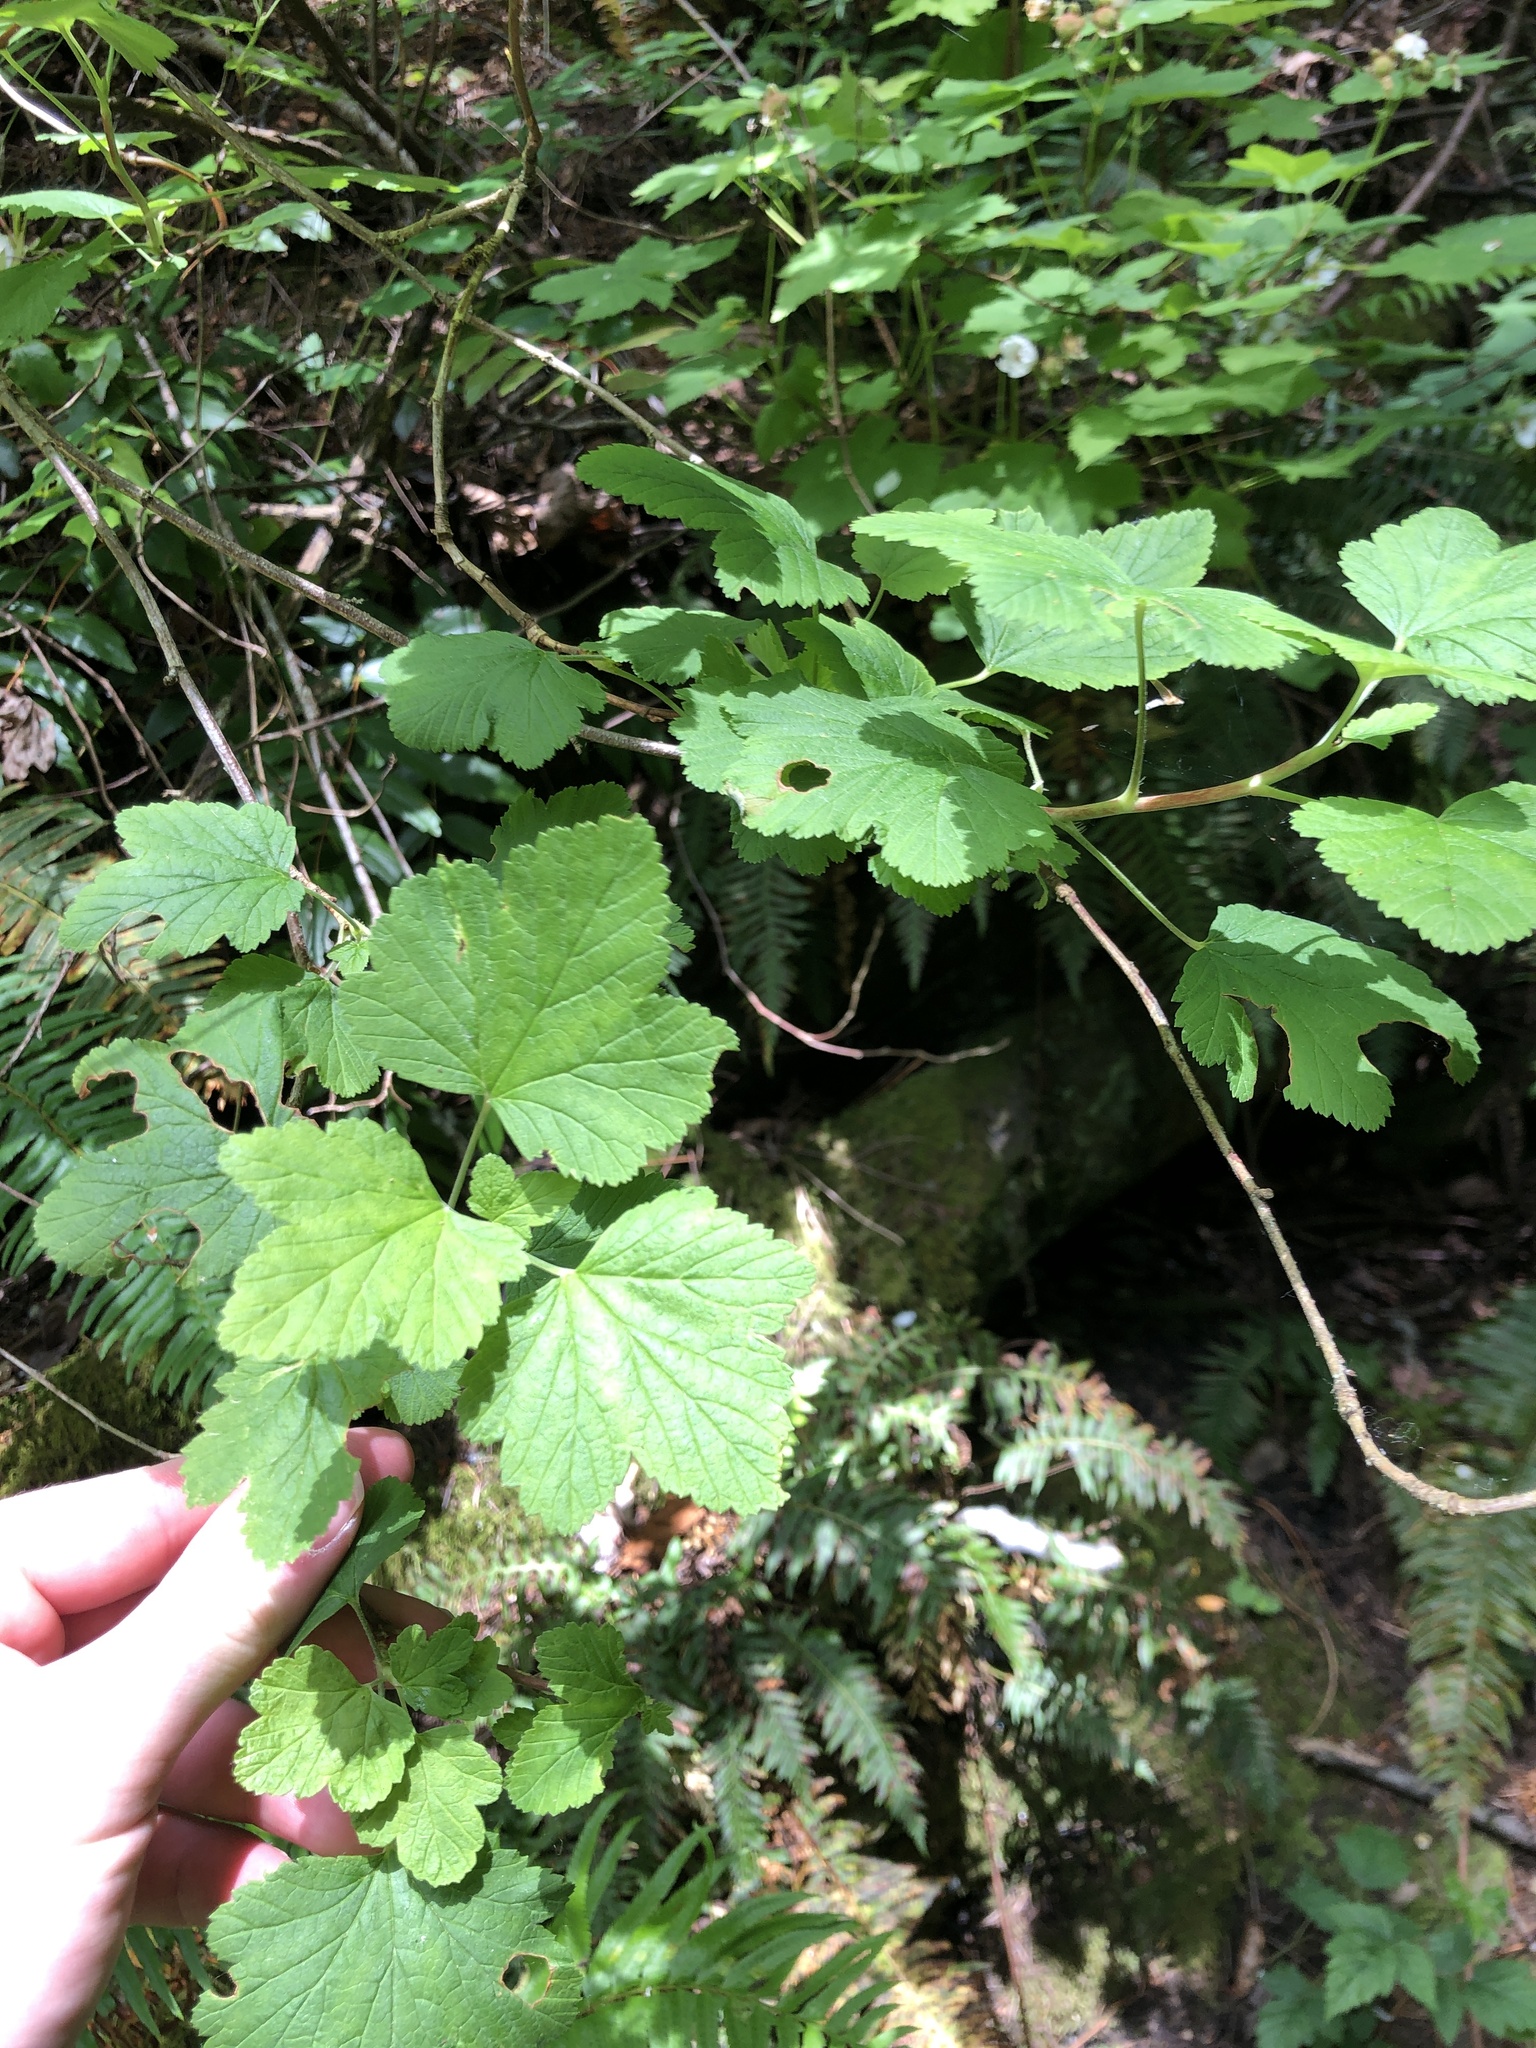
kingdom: Plantae
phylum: Tracheophyta
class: Magnoliopsida
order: Saxifragales
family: Grossulariaceae
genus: Ribes
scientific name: Ribes sanguineum
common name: Flowering currant
